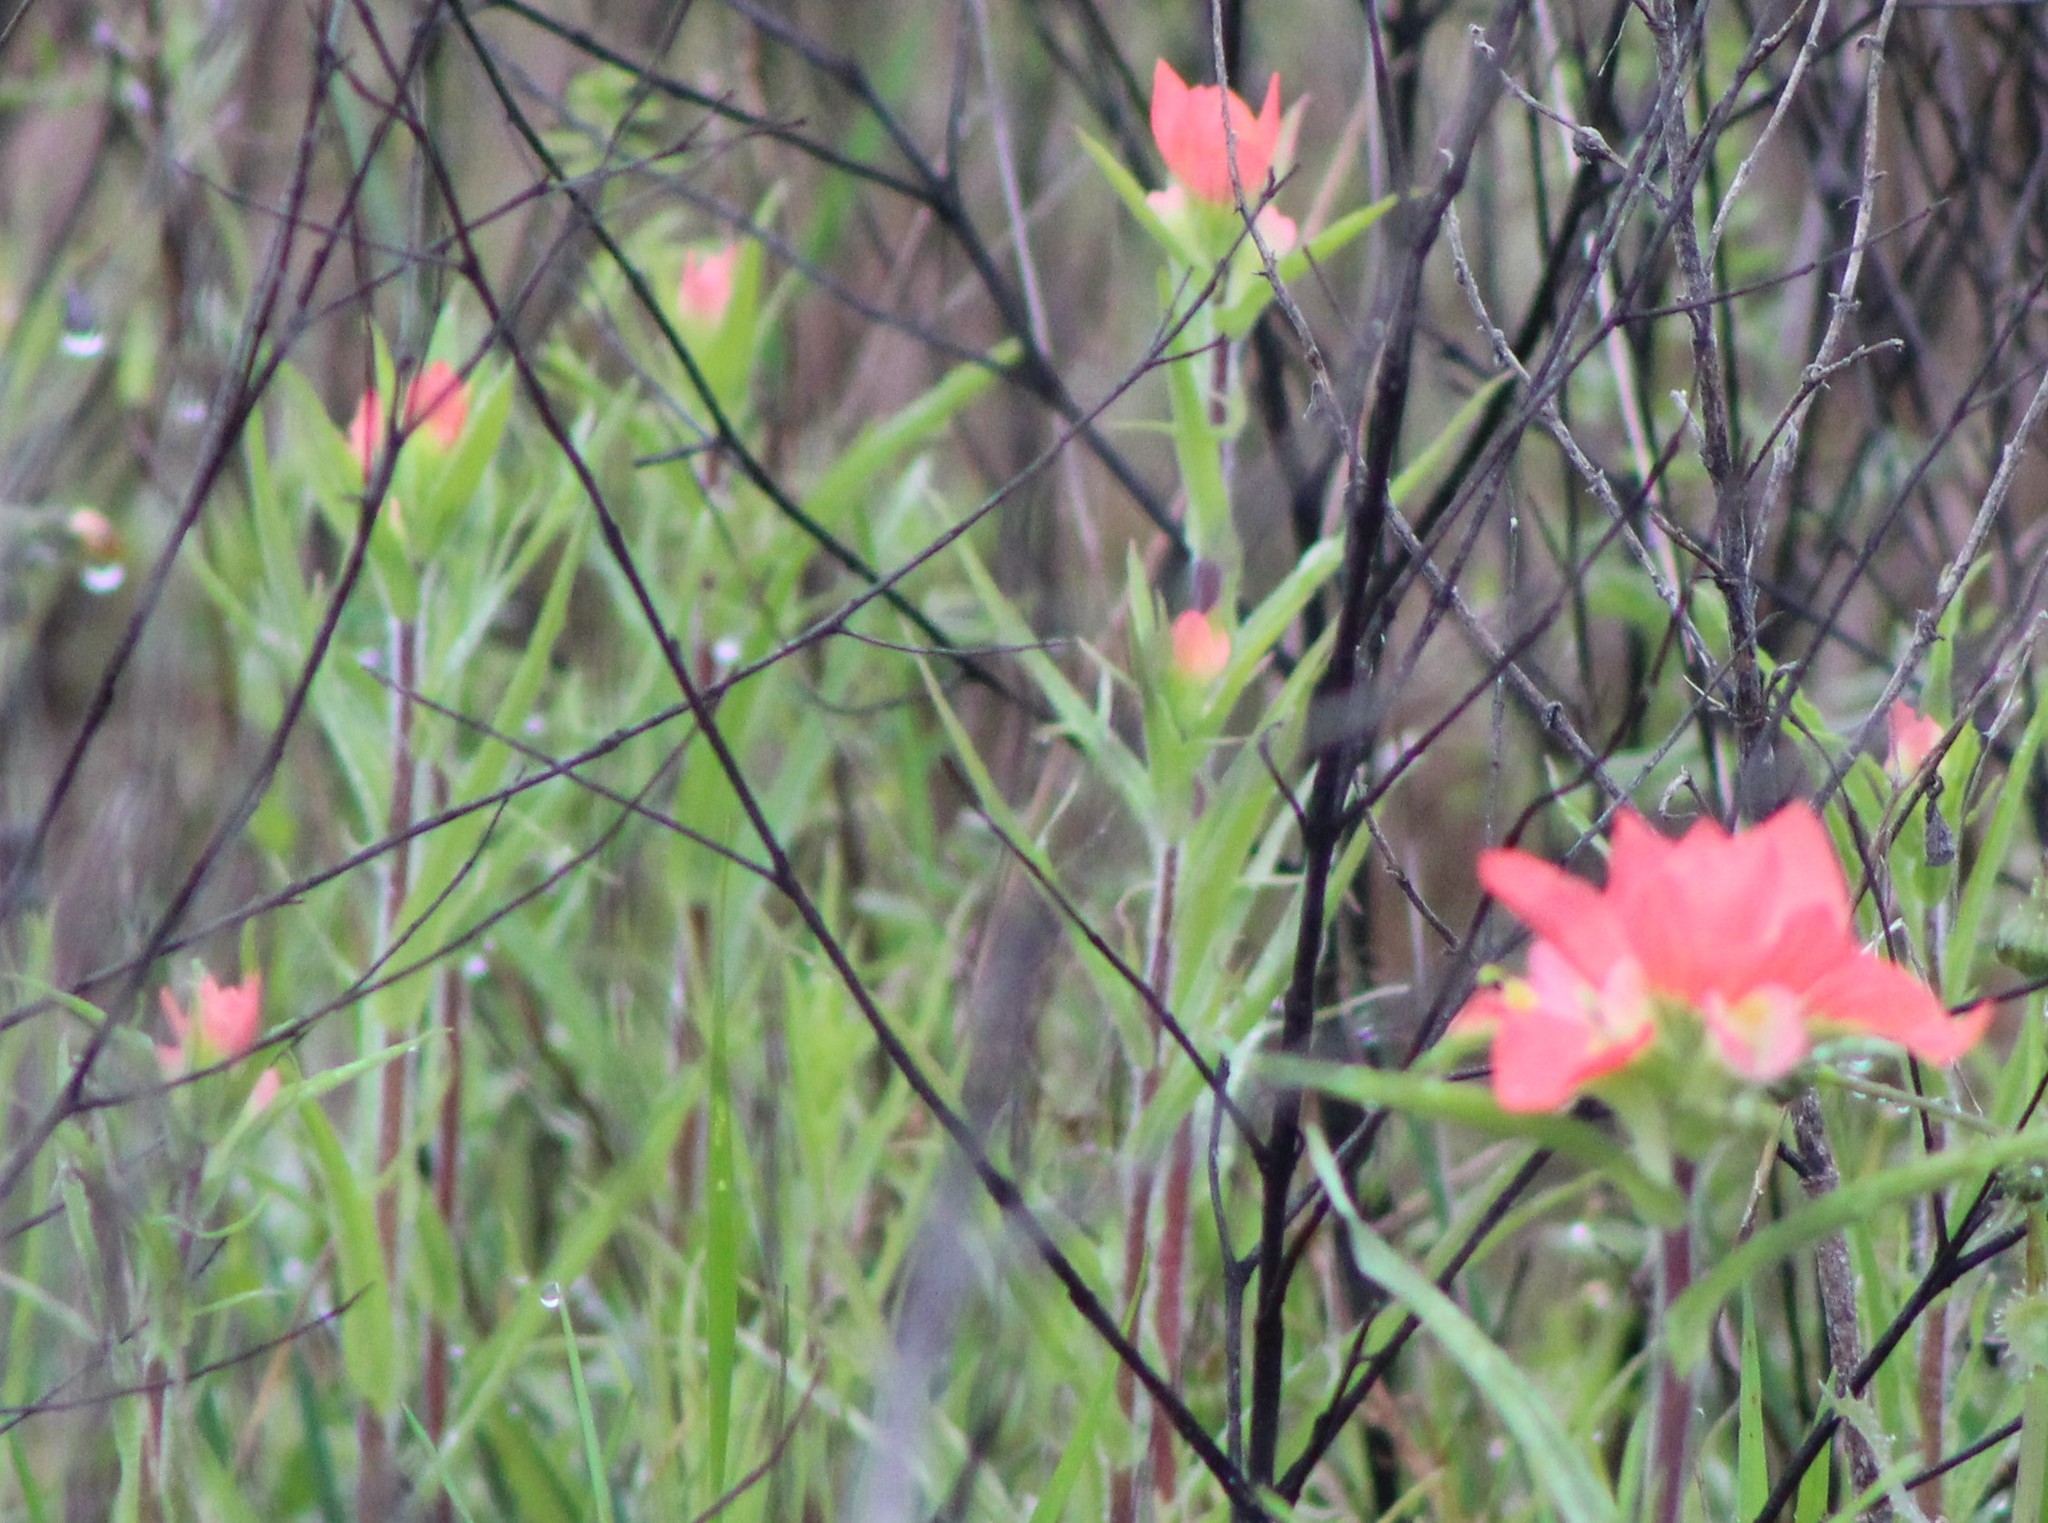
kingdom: Plantae
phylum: Tracheophyta
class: Magnoliopsida
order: Lamiales
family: Orobanchaceae
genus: Castilleja
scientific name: Castilleja indivisa
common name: Texas paintbrush
